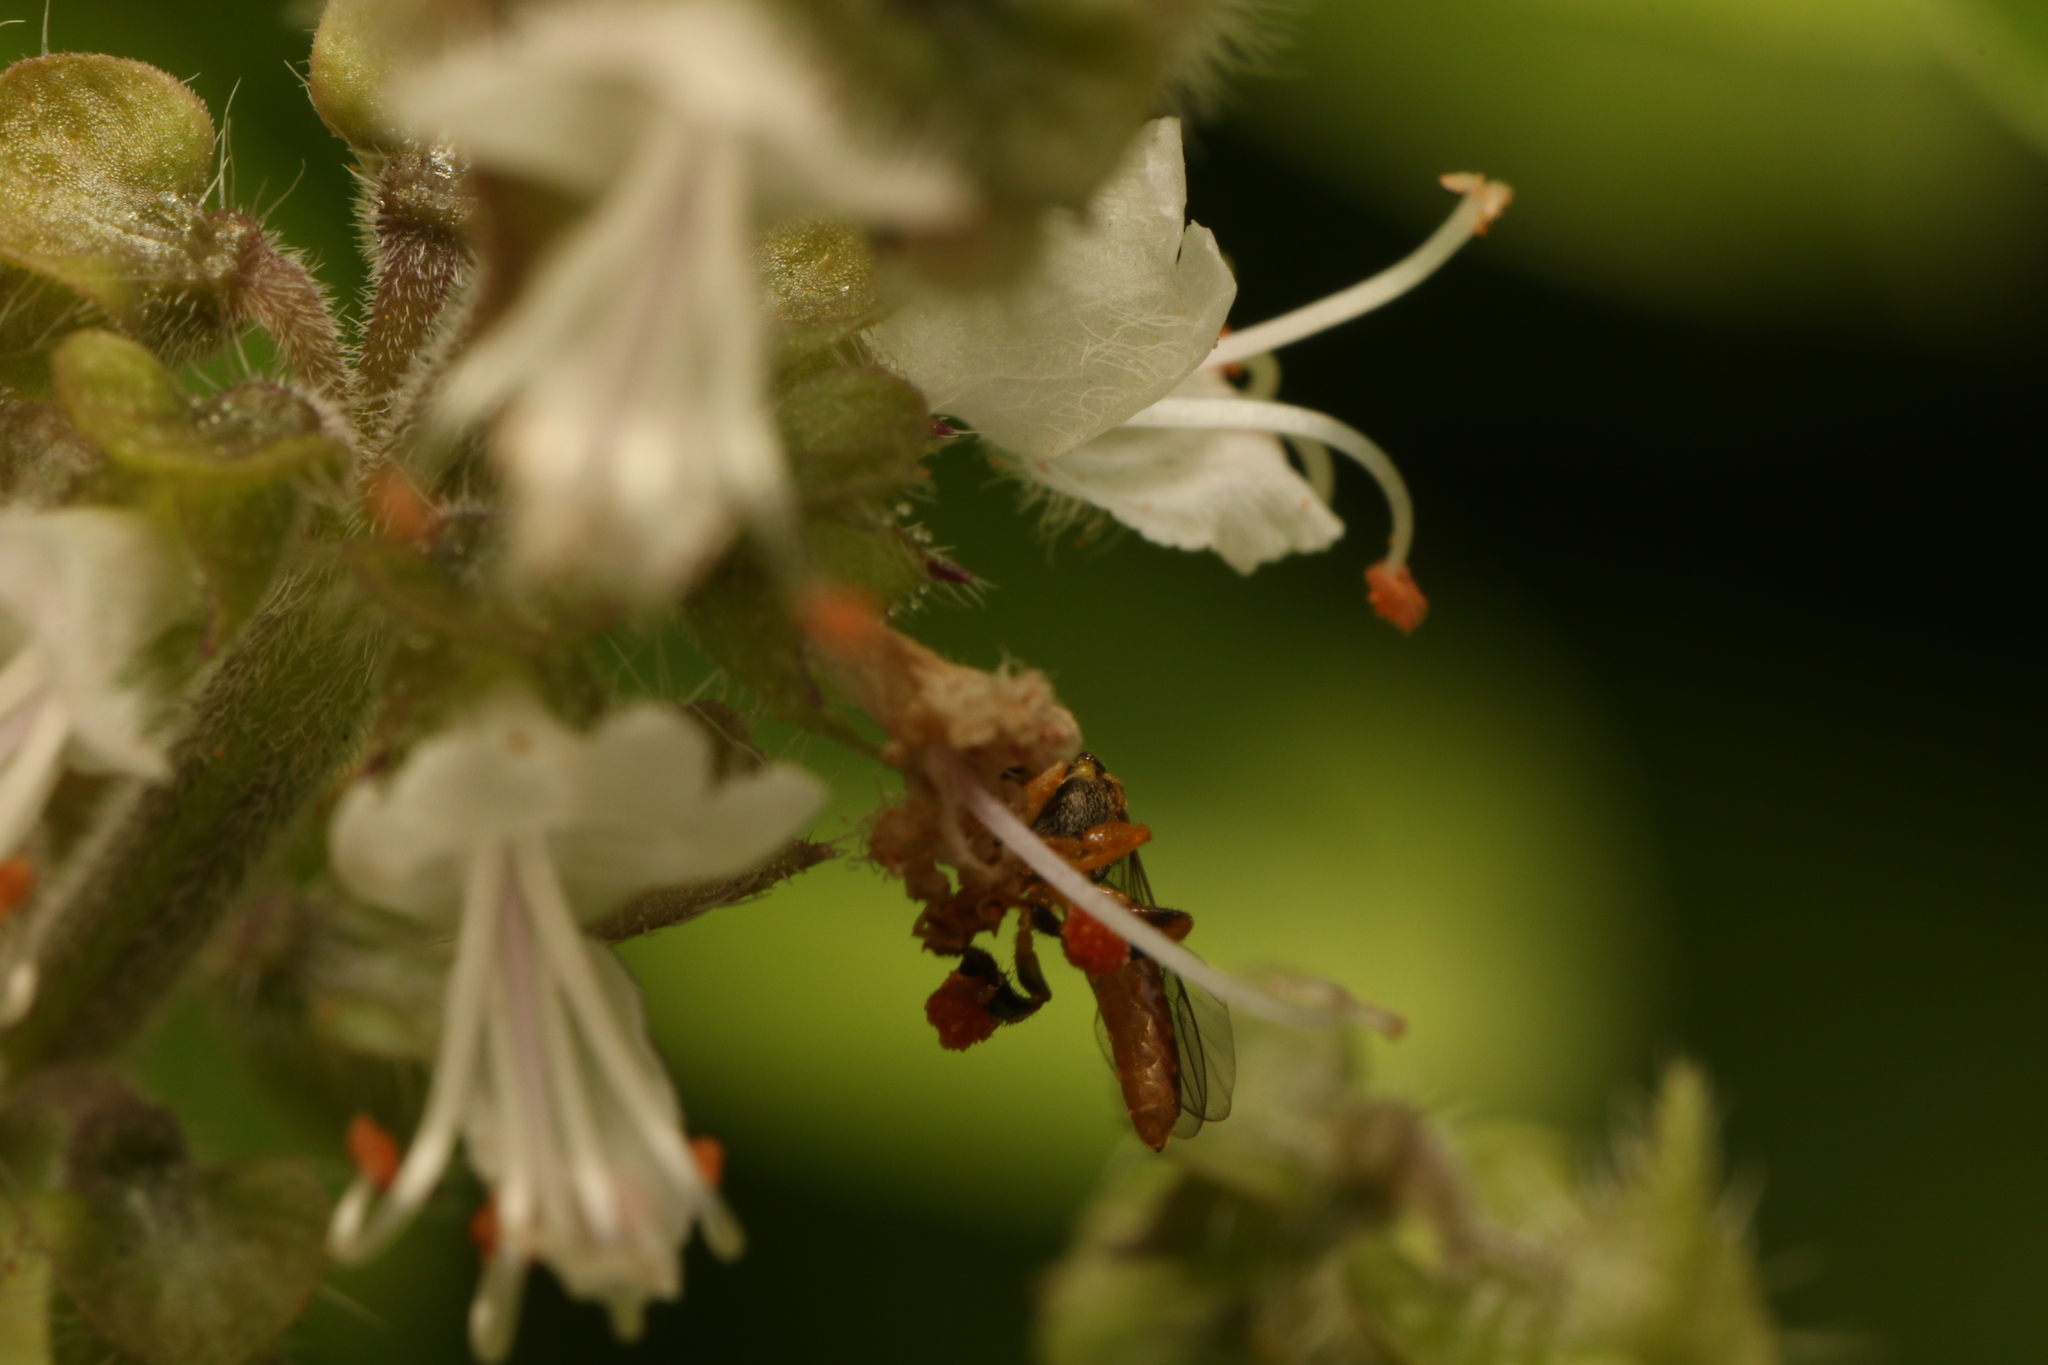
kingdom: Animalia
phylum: Arthropoda
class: Insecta
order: Hymenoptera
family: Apidae
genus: Tetragonisca
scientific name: Tetragonisca angustula
